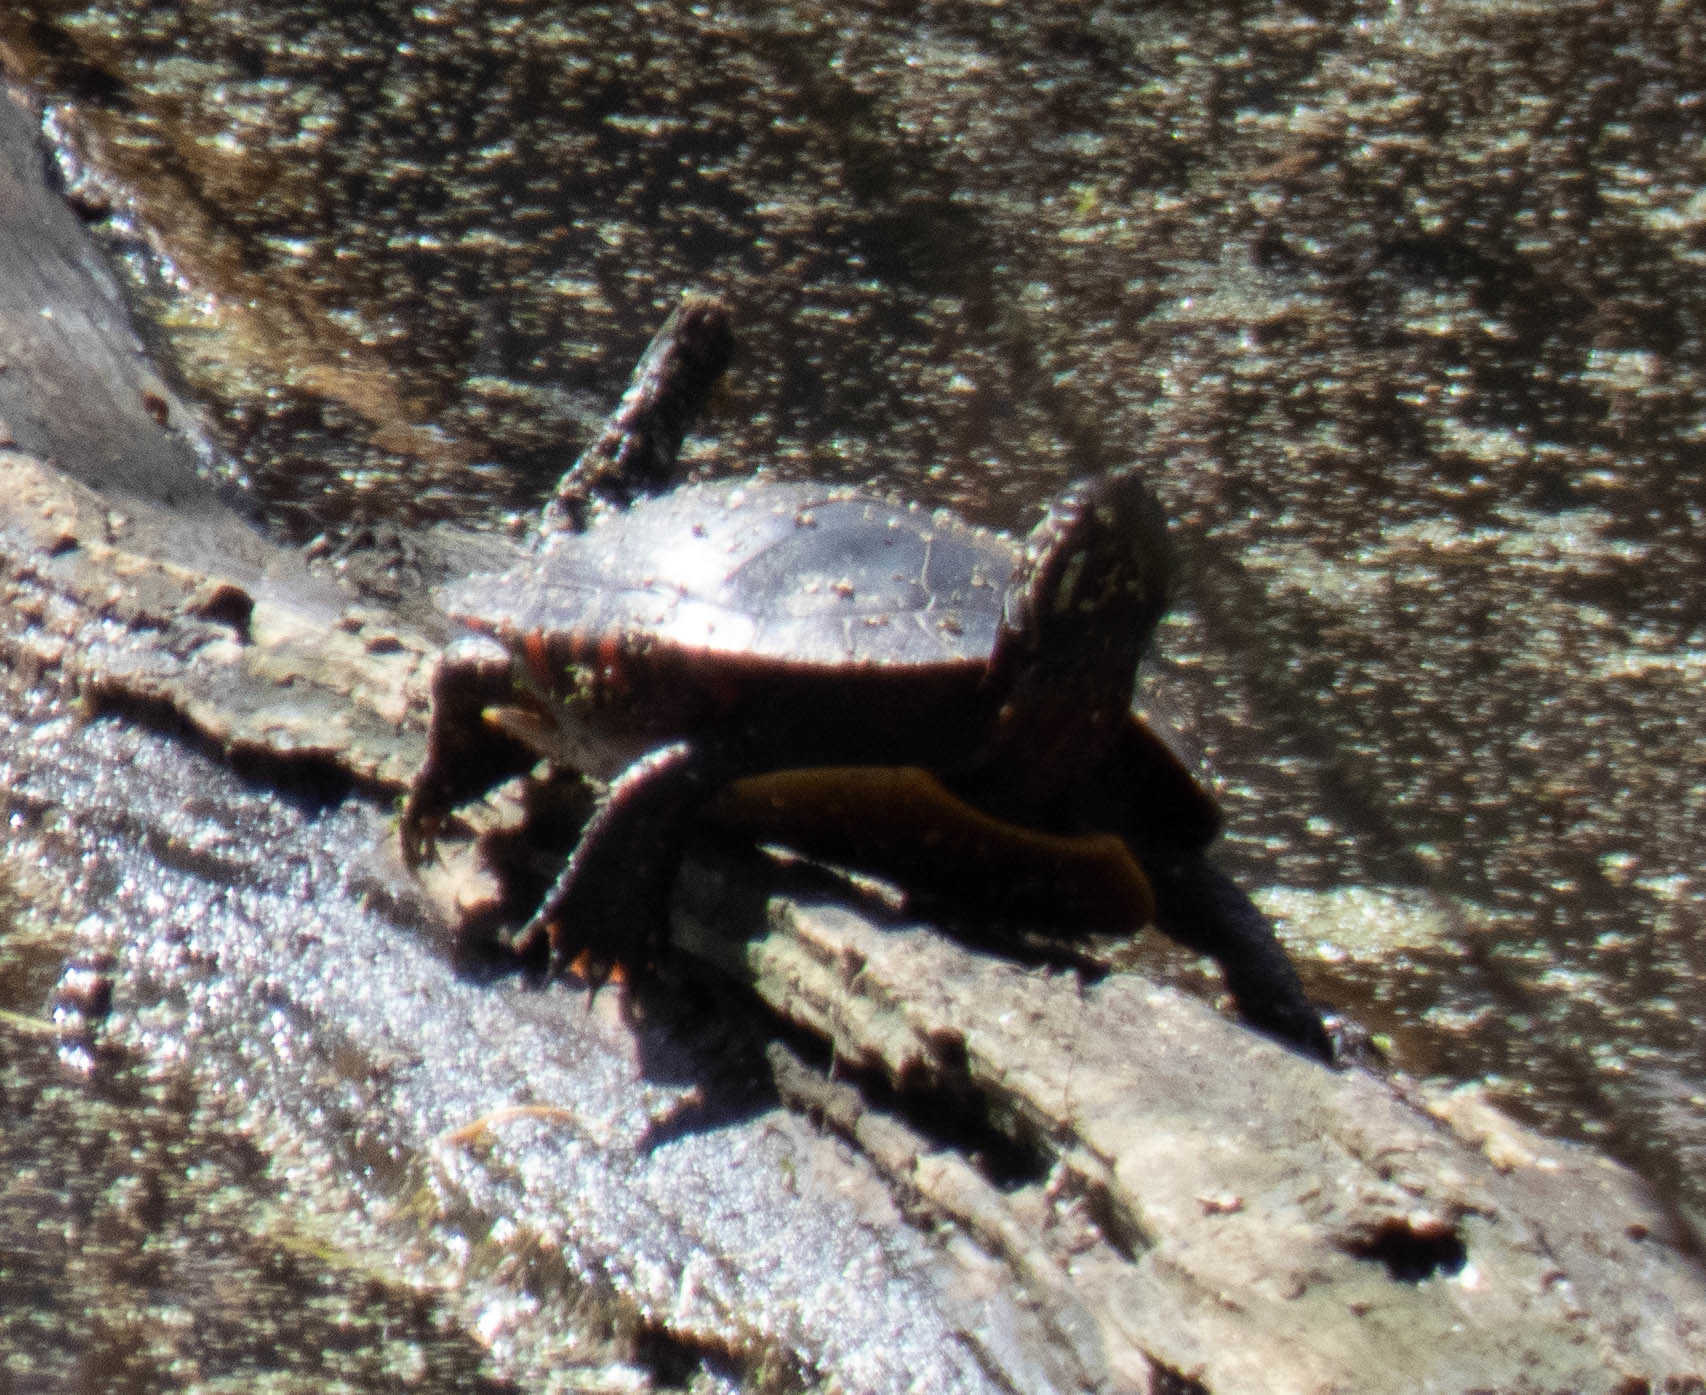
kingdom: Animalia
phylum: Chordata
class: Testudines
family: Emydidae
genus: Chrysemys
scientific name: Chrysemys picta
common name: Painted turtle
